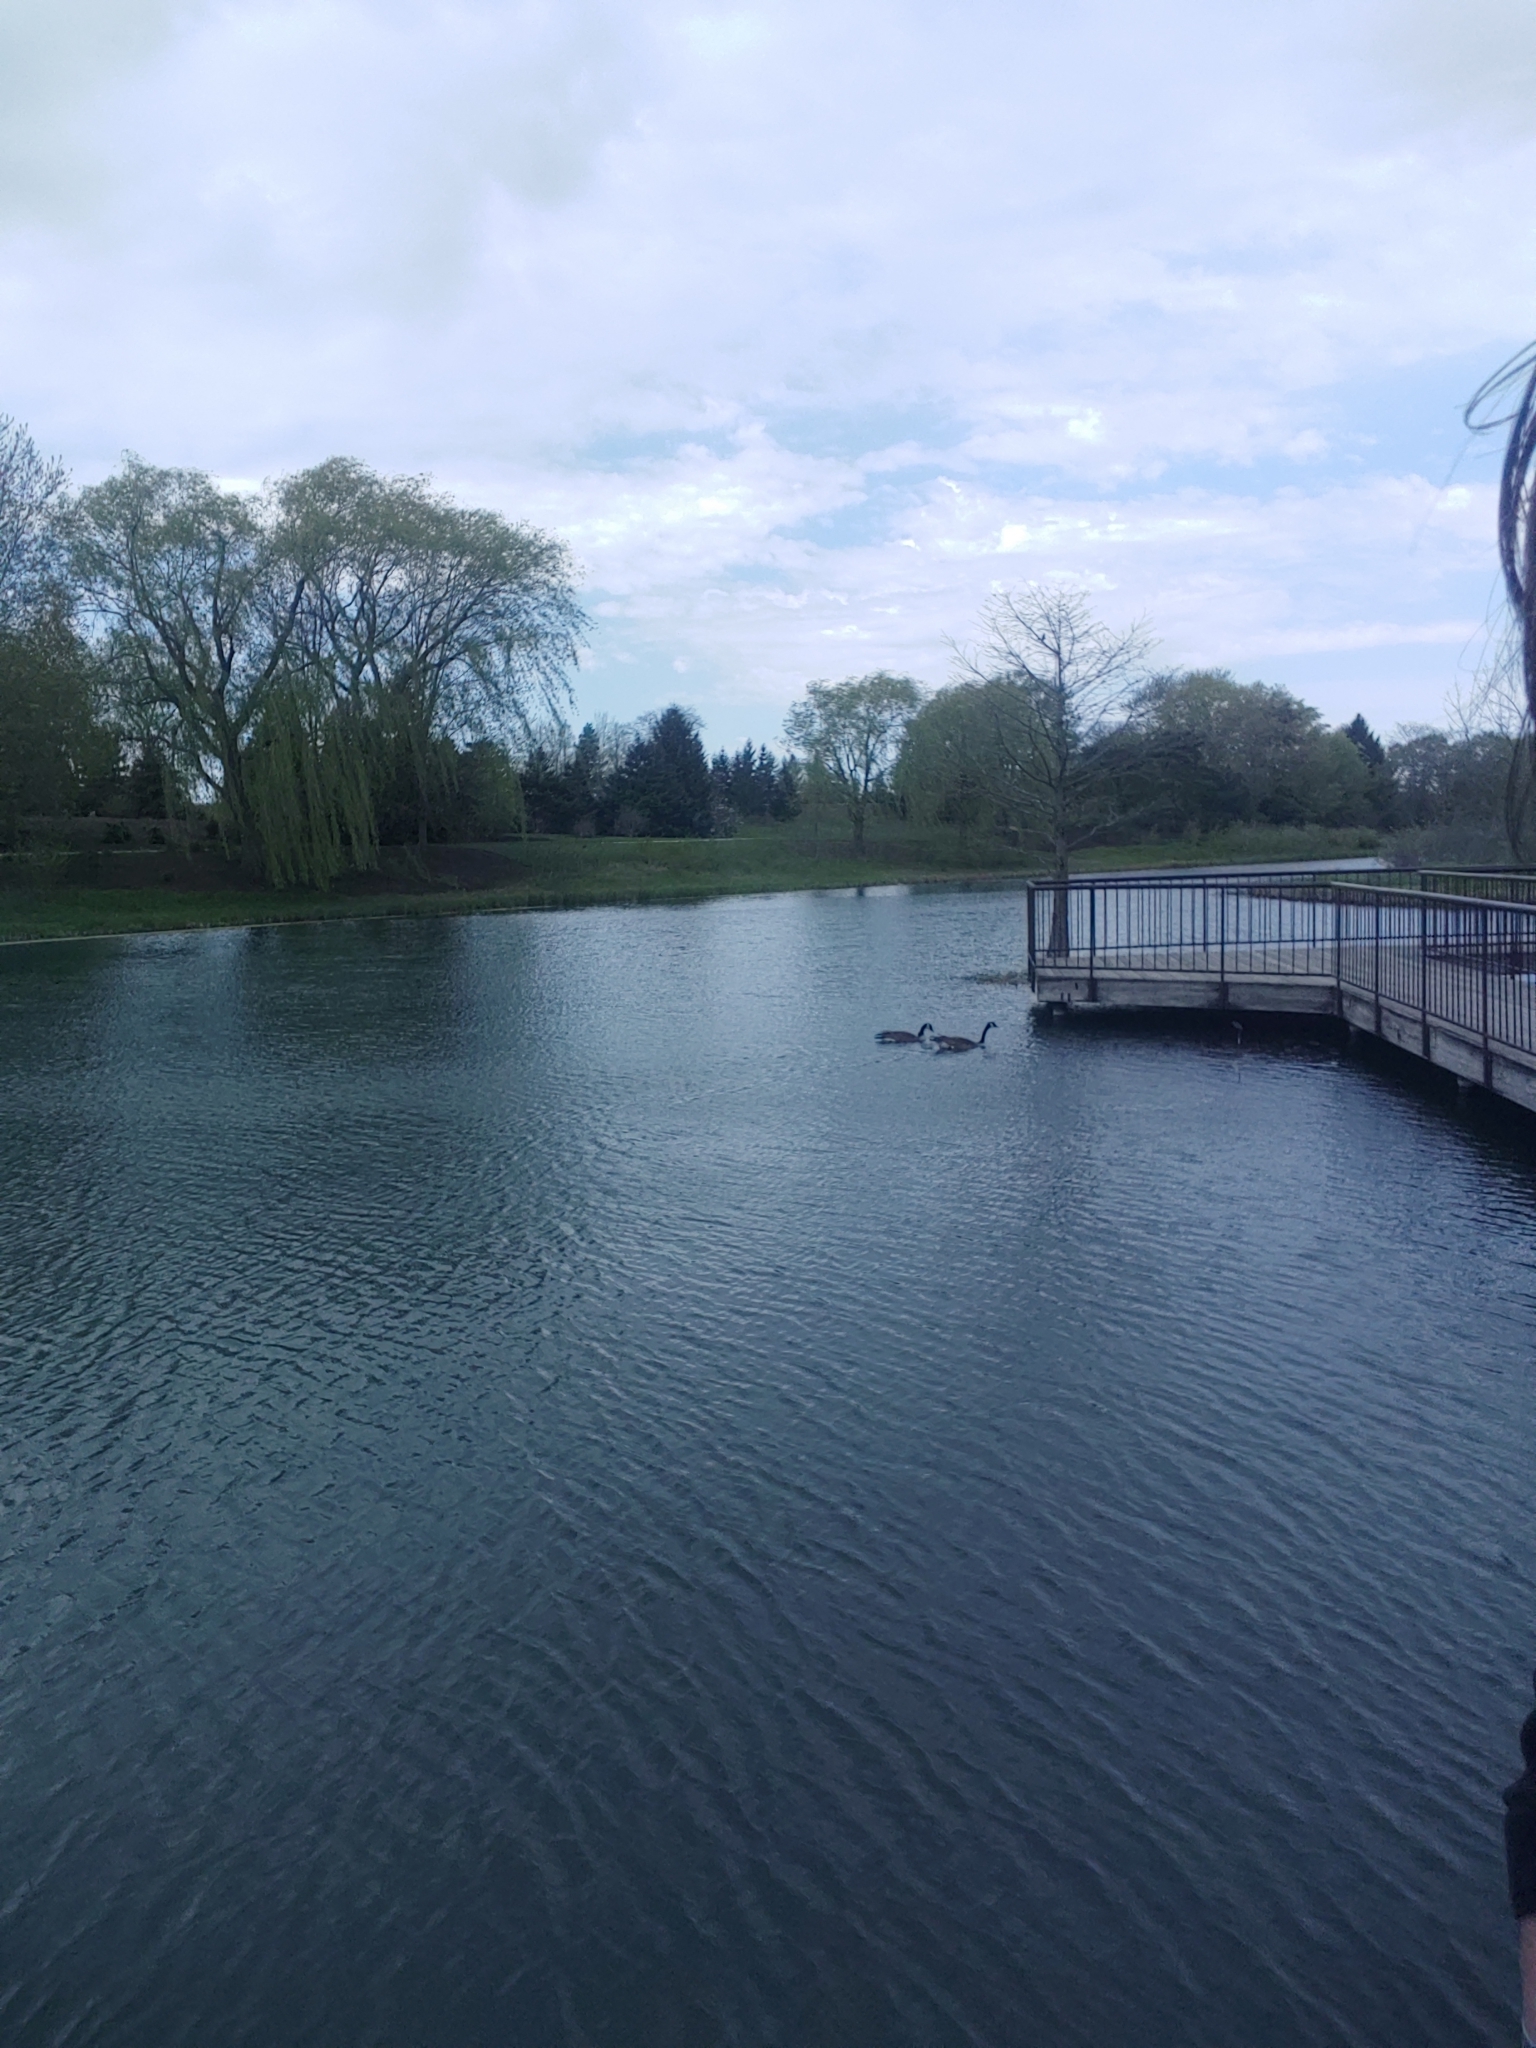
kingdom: Animalia
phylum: Chordata
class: Aves
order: Anseriformes
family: Anatidae
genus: Branta
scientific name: Branta canadensis
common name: Canada goose
